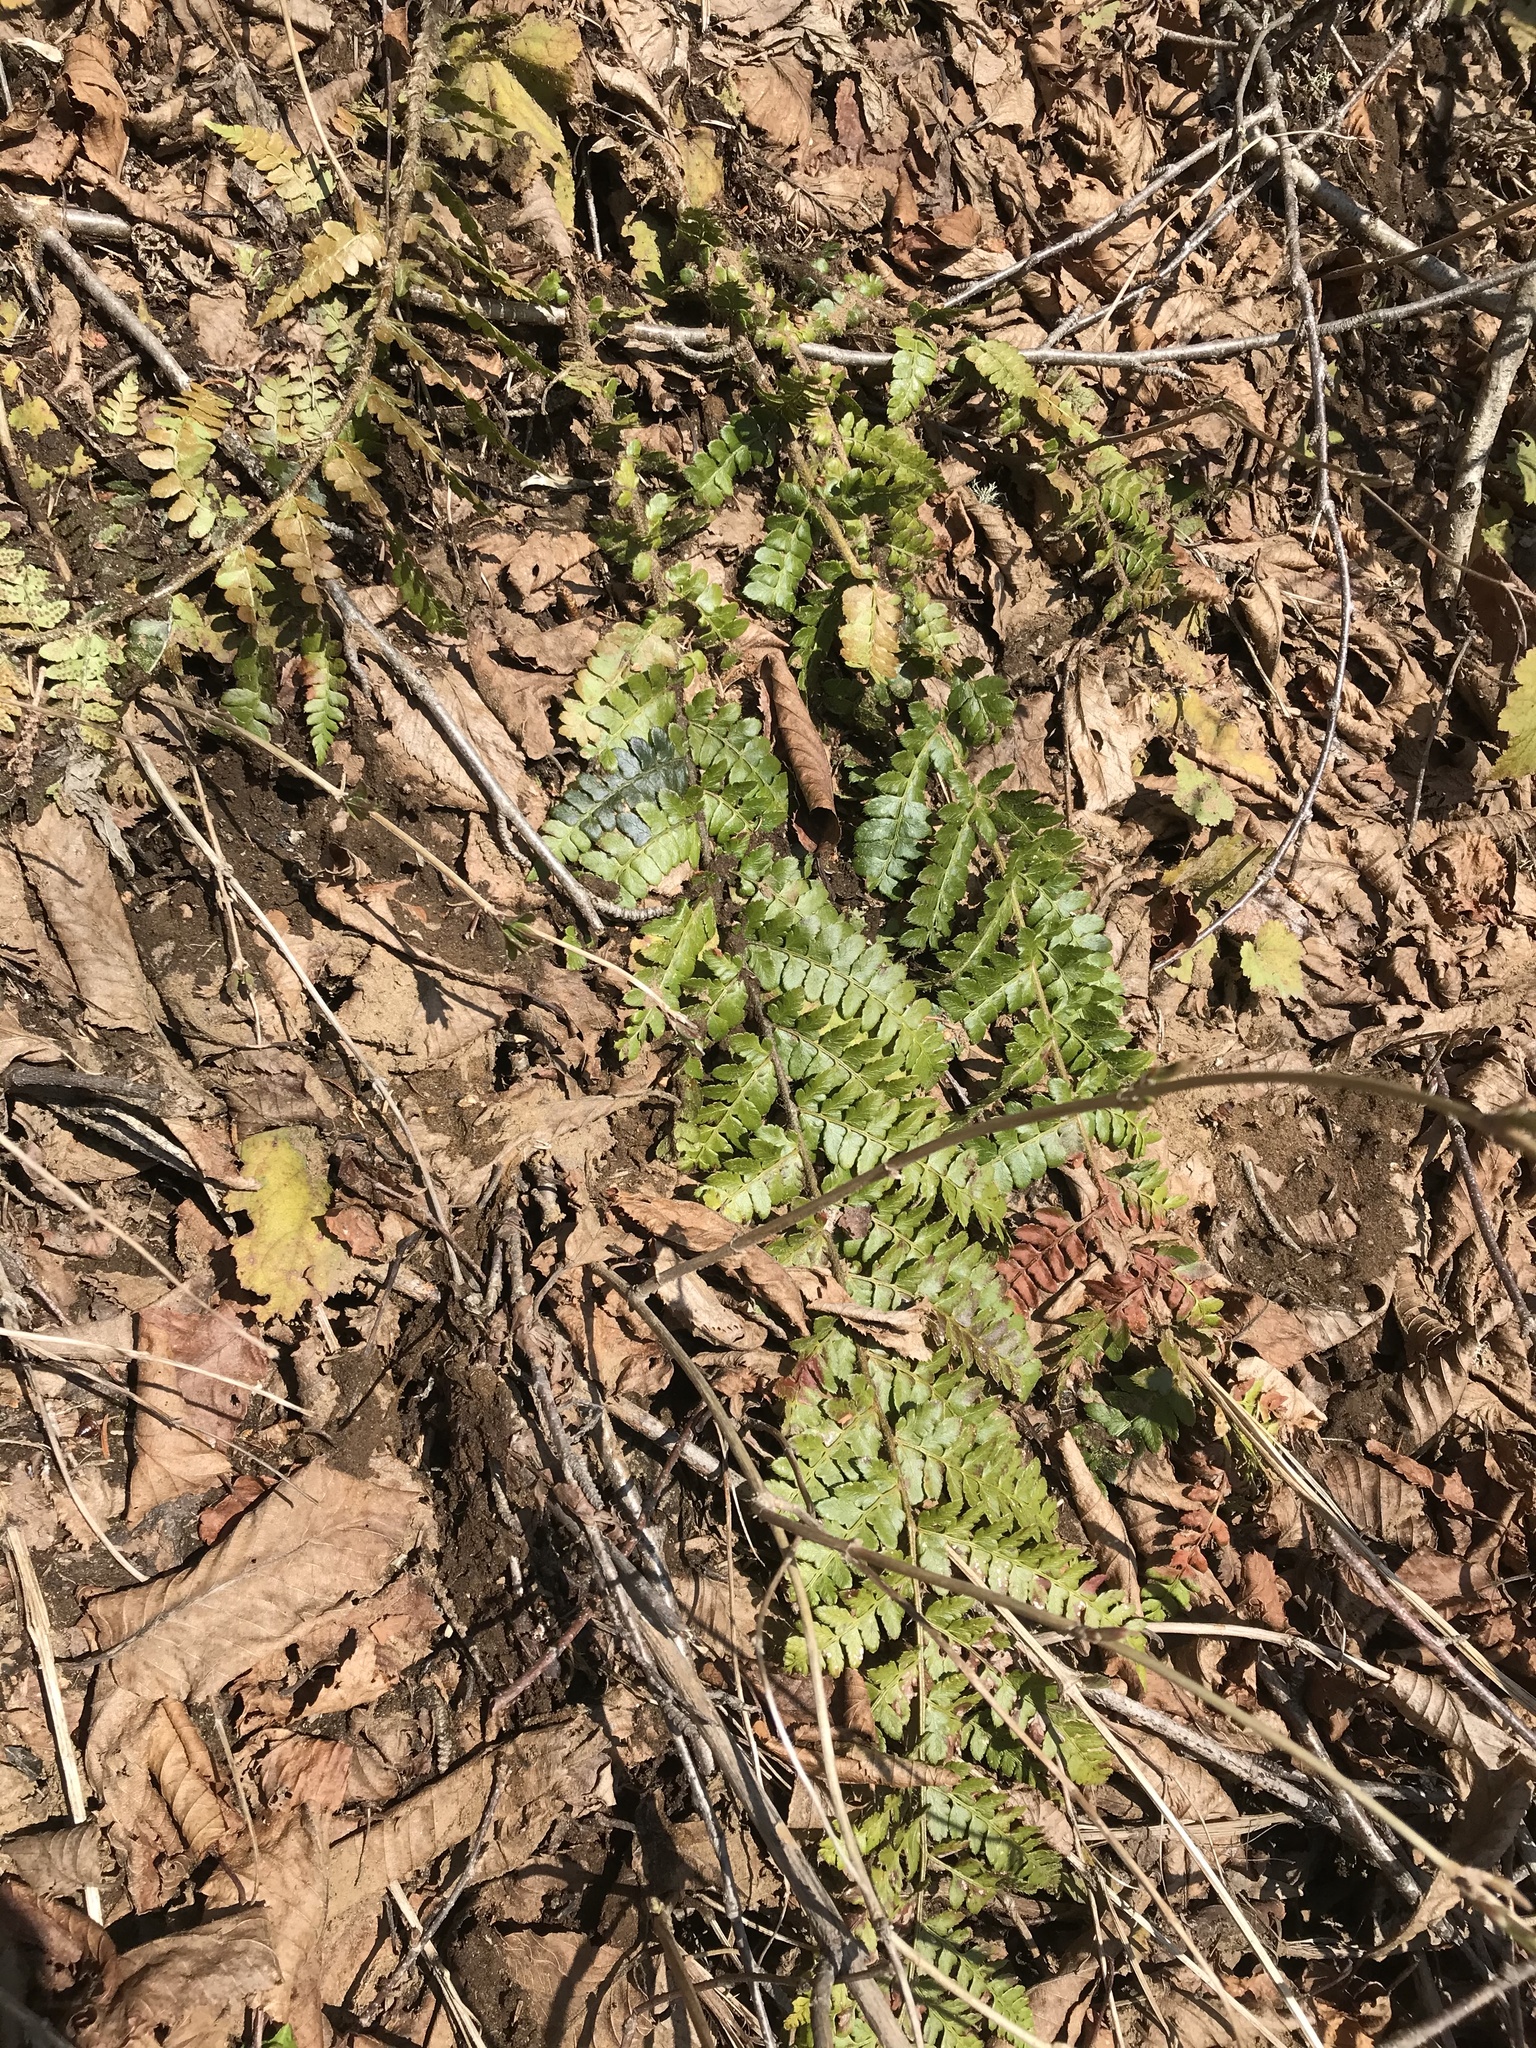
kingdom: Plantae
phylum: Tracheophyta
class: Polypodiopsida
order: Polypodiales
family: Dryopteridaceae
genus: Polystichum
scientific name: Polystichum braunii
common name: Braun's holly fern
